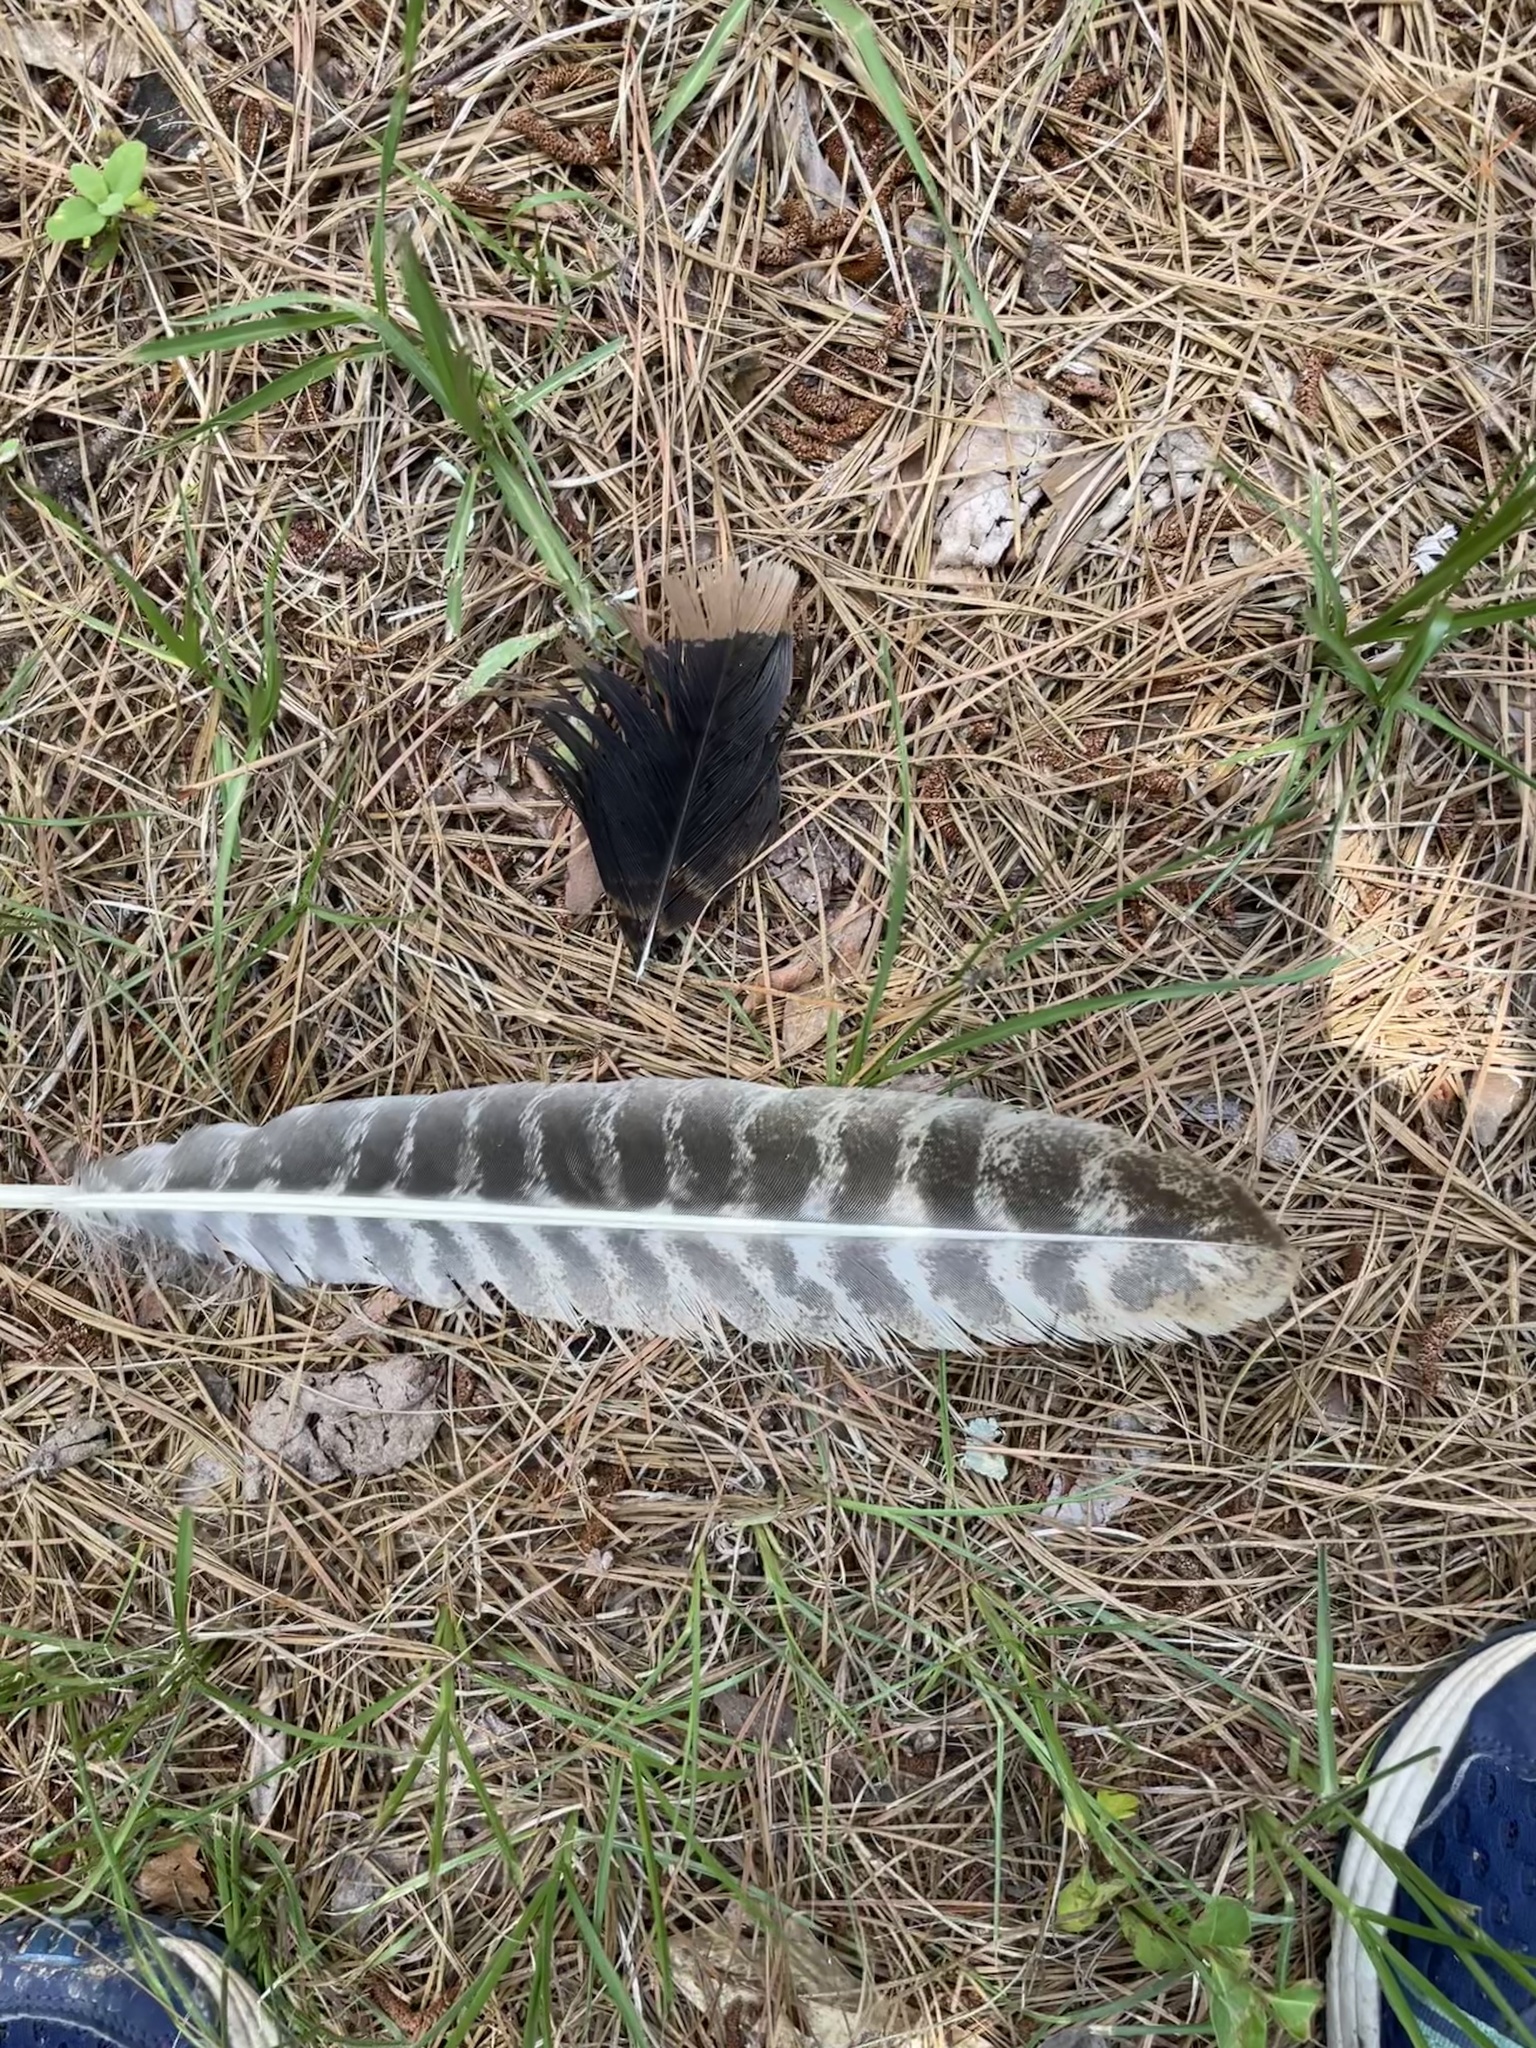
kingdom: Animalia
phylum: Chordata
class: Aves
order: Galliformes
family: Phasianidae
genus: Meleagris
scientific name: Meleagris gallopavo
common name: Wild turkey
